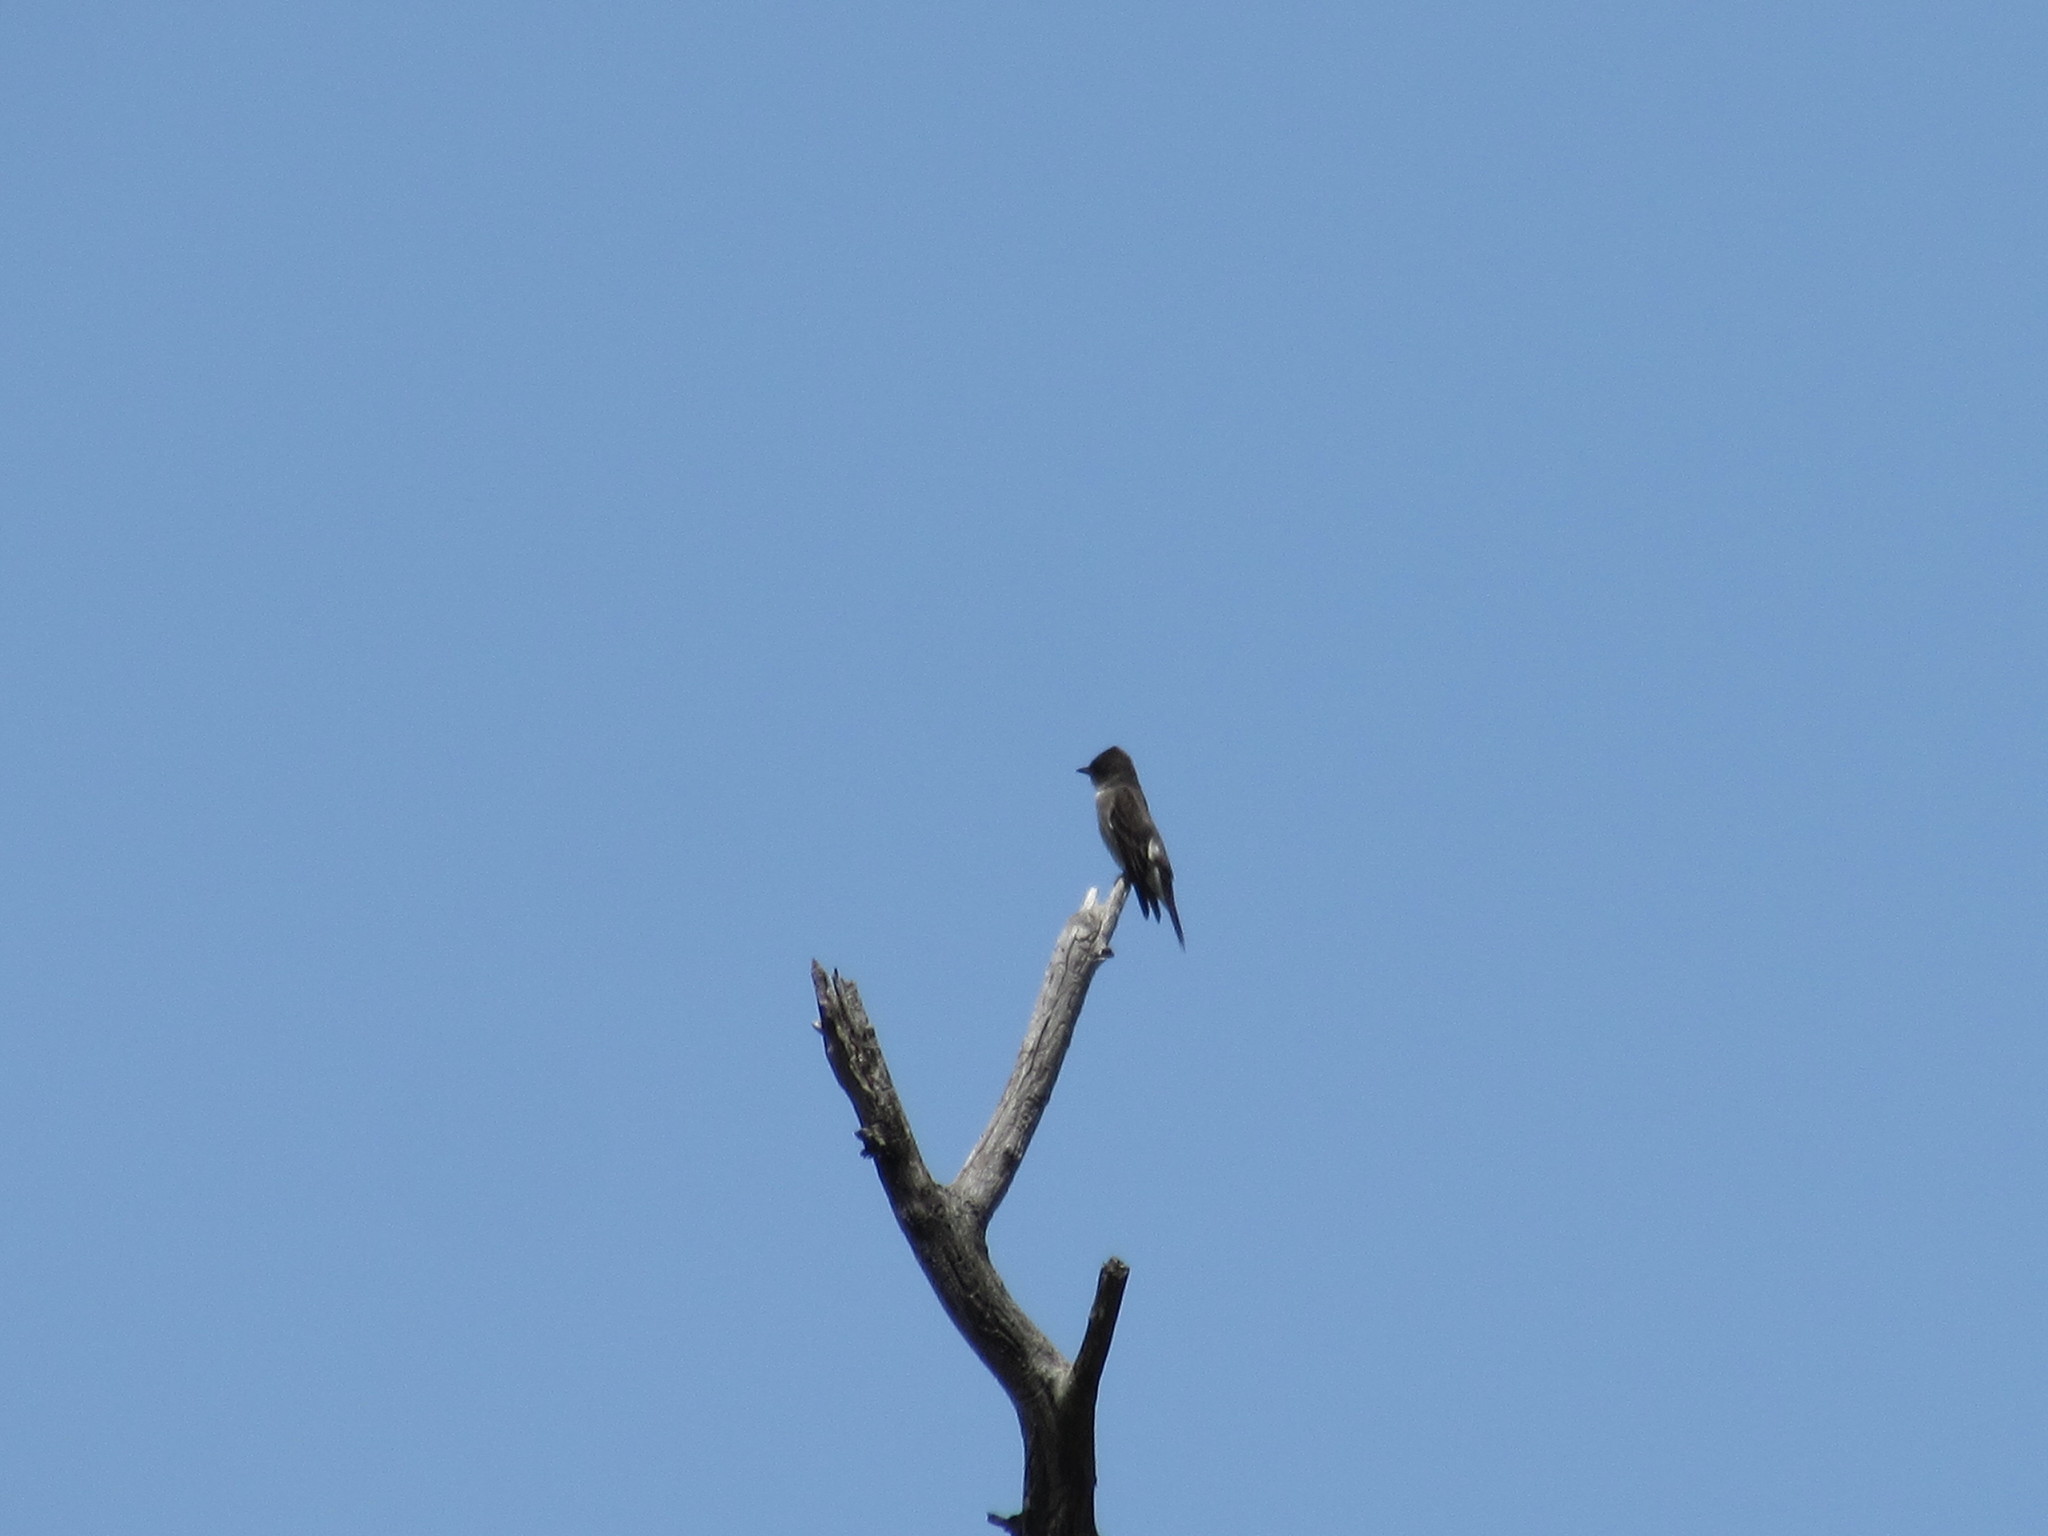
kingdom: Animalia
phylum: Chordata
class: Aves
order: Passeriformes
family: Tyrannidae
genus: Contopus
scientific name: Contopus cooperi
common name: Olive-sided flycatcher
